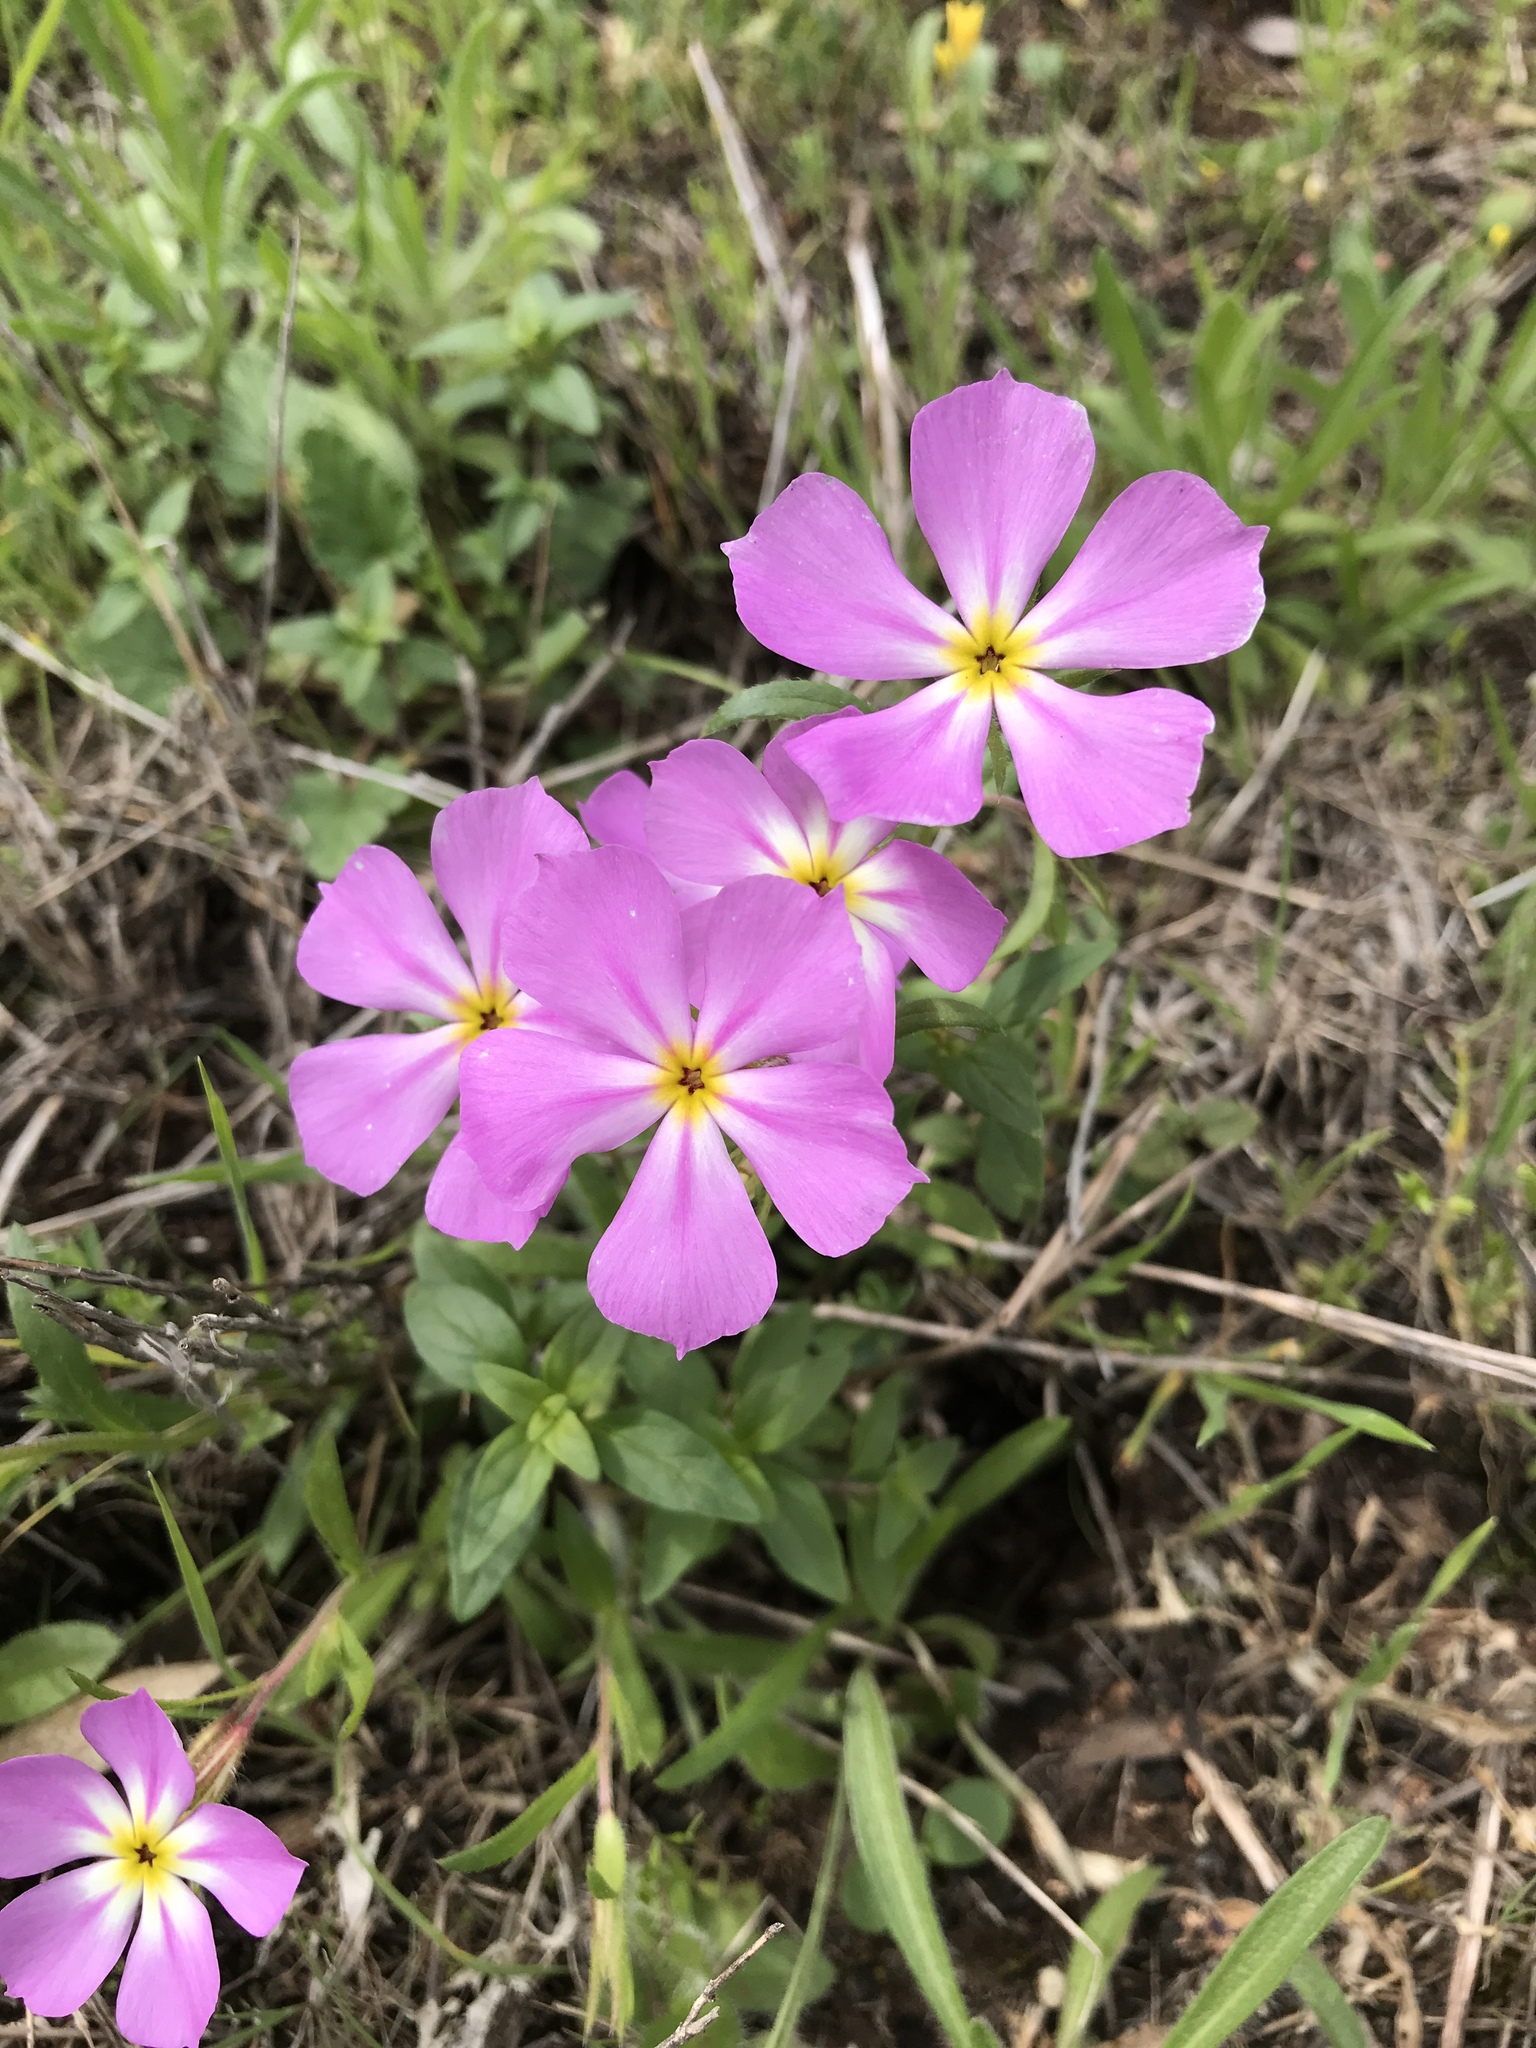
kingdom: Plantae
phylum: Tracheophyta
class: Magnoliopsida
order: Ericales
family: Polemoniaceae
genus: Phlox
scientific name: Phlox roemeriana
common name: Roemer's phlox
